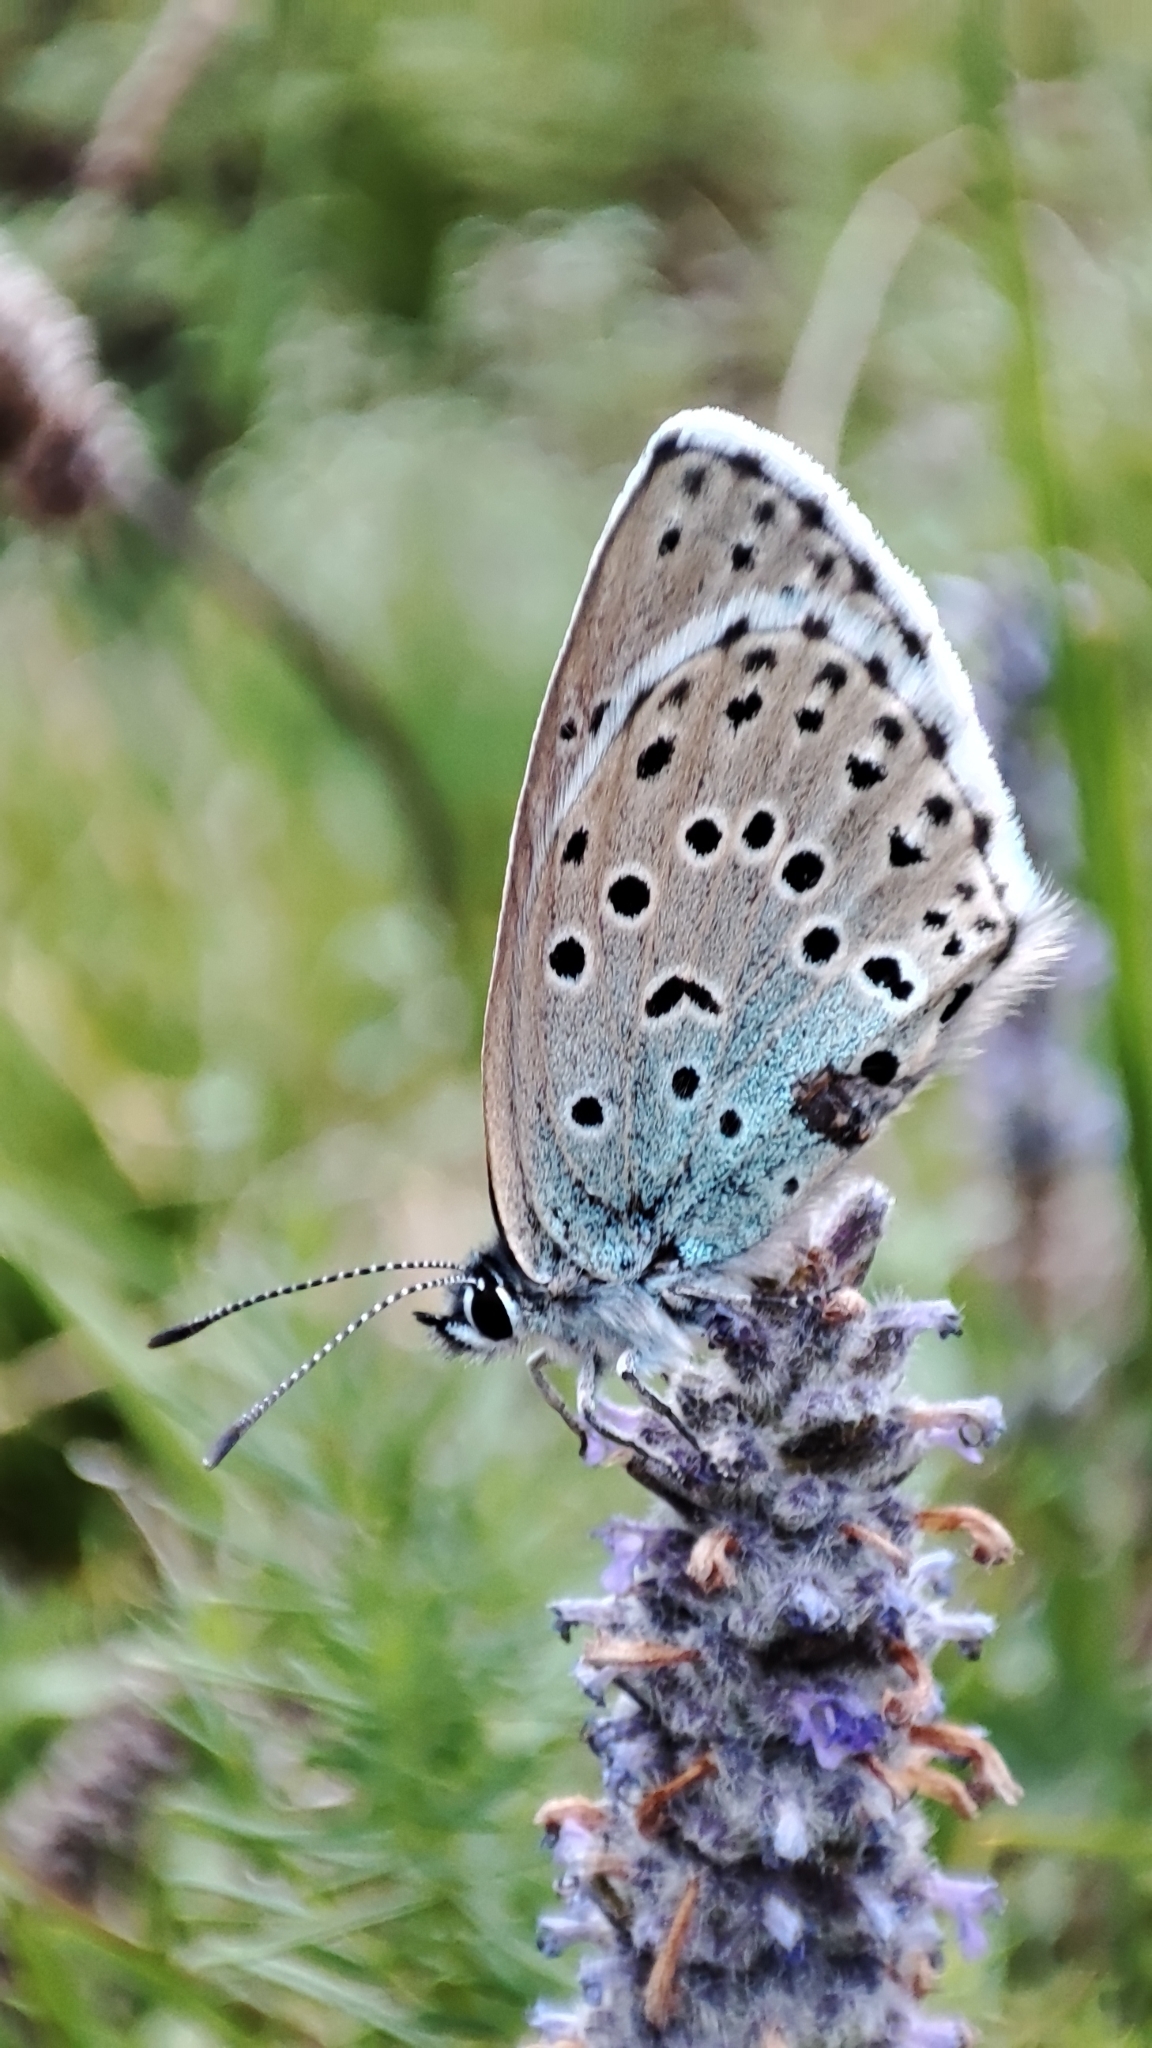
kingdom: Animalia
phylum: Arthropoda
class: Insecta
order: Lepidoptera
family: Lycaenidae
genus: Maculinea
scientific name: Maculinea arion
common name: Large blue
